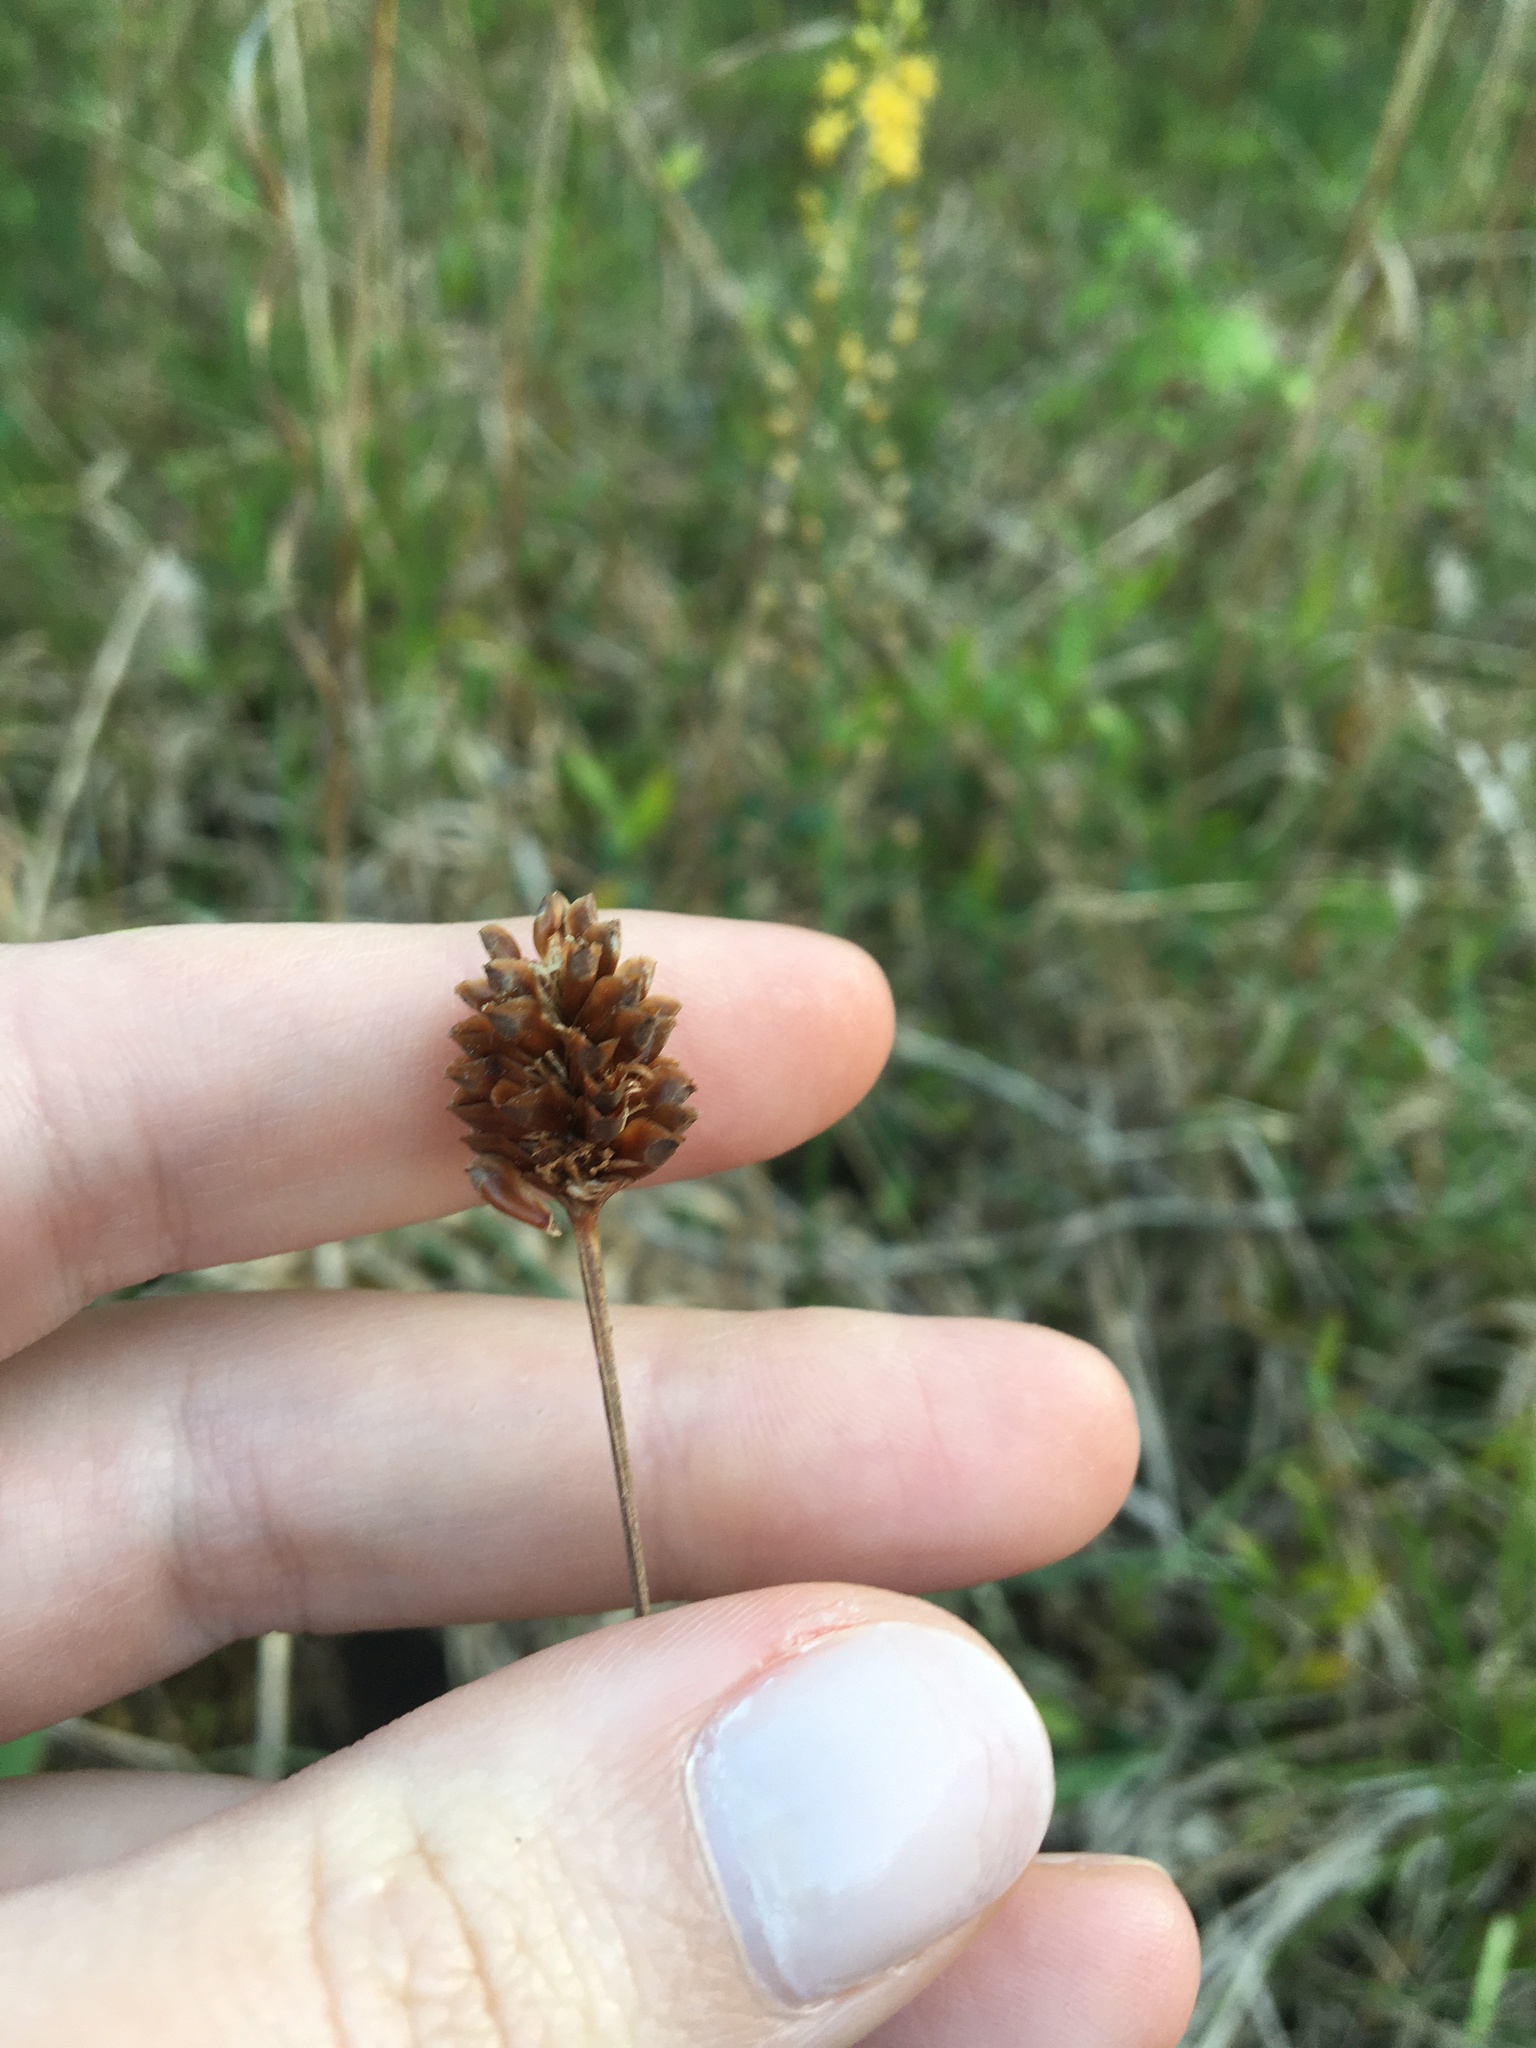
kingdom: Plantae
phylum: Tracheophyta
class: Liliopsida
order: Poales
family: Xyridaceae
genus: Xyris
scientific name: Xyris difformis
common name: Bog yellow-eyed-grass
